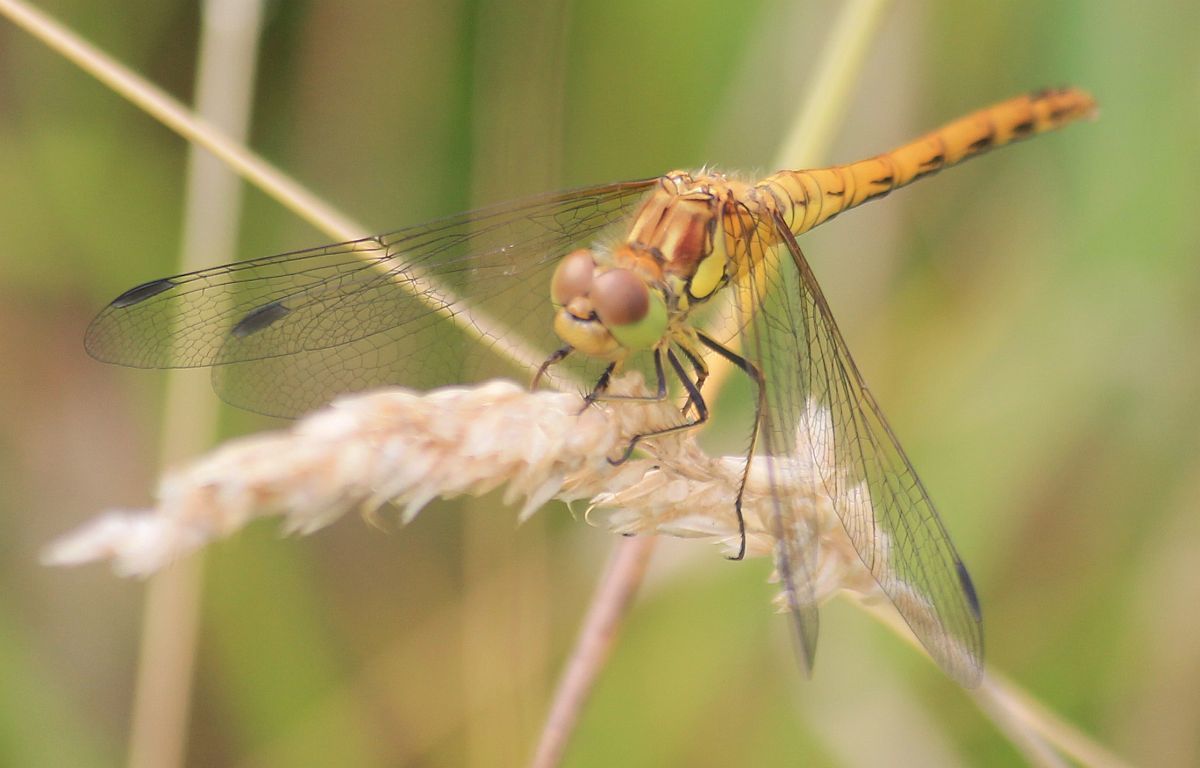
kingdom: Animalia
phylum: Arthropoda
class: Insecta
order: Odonata
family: Libellulidae
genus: Sympetrum
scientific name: Sympetrum striolatum
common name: Common darter
